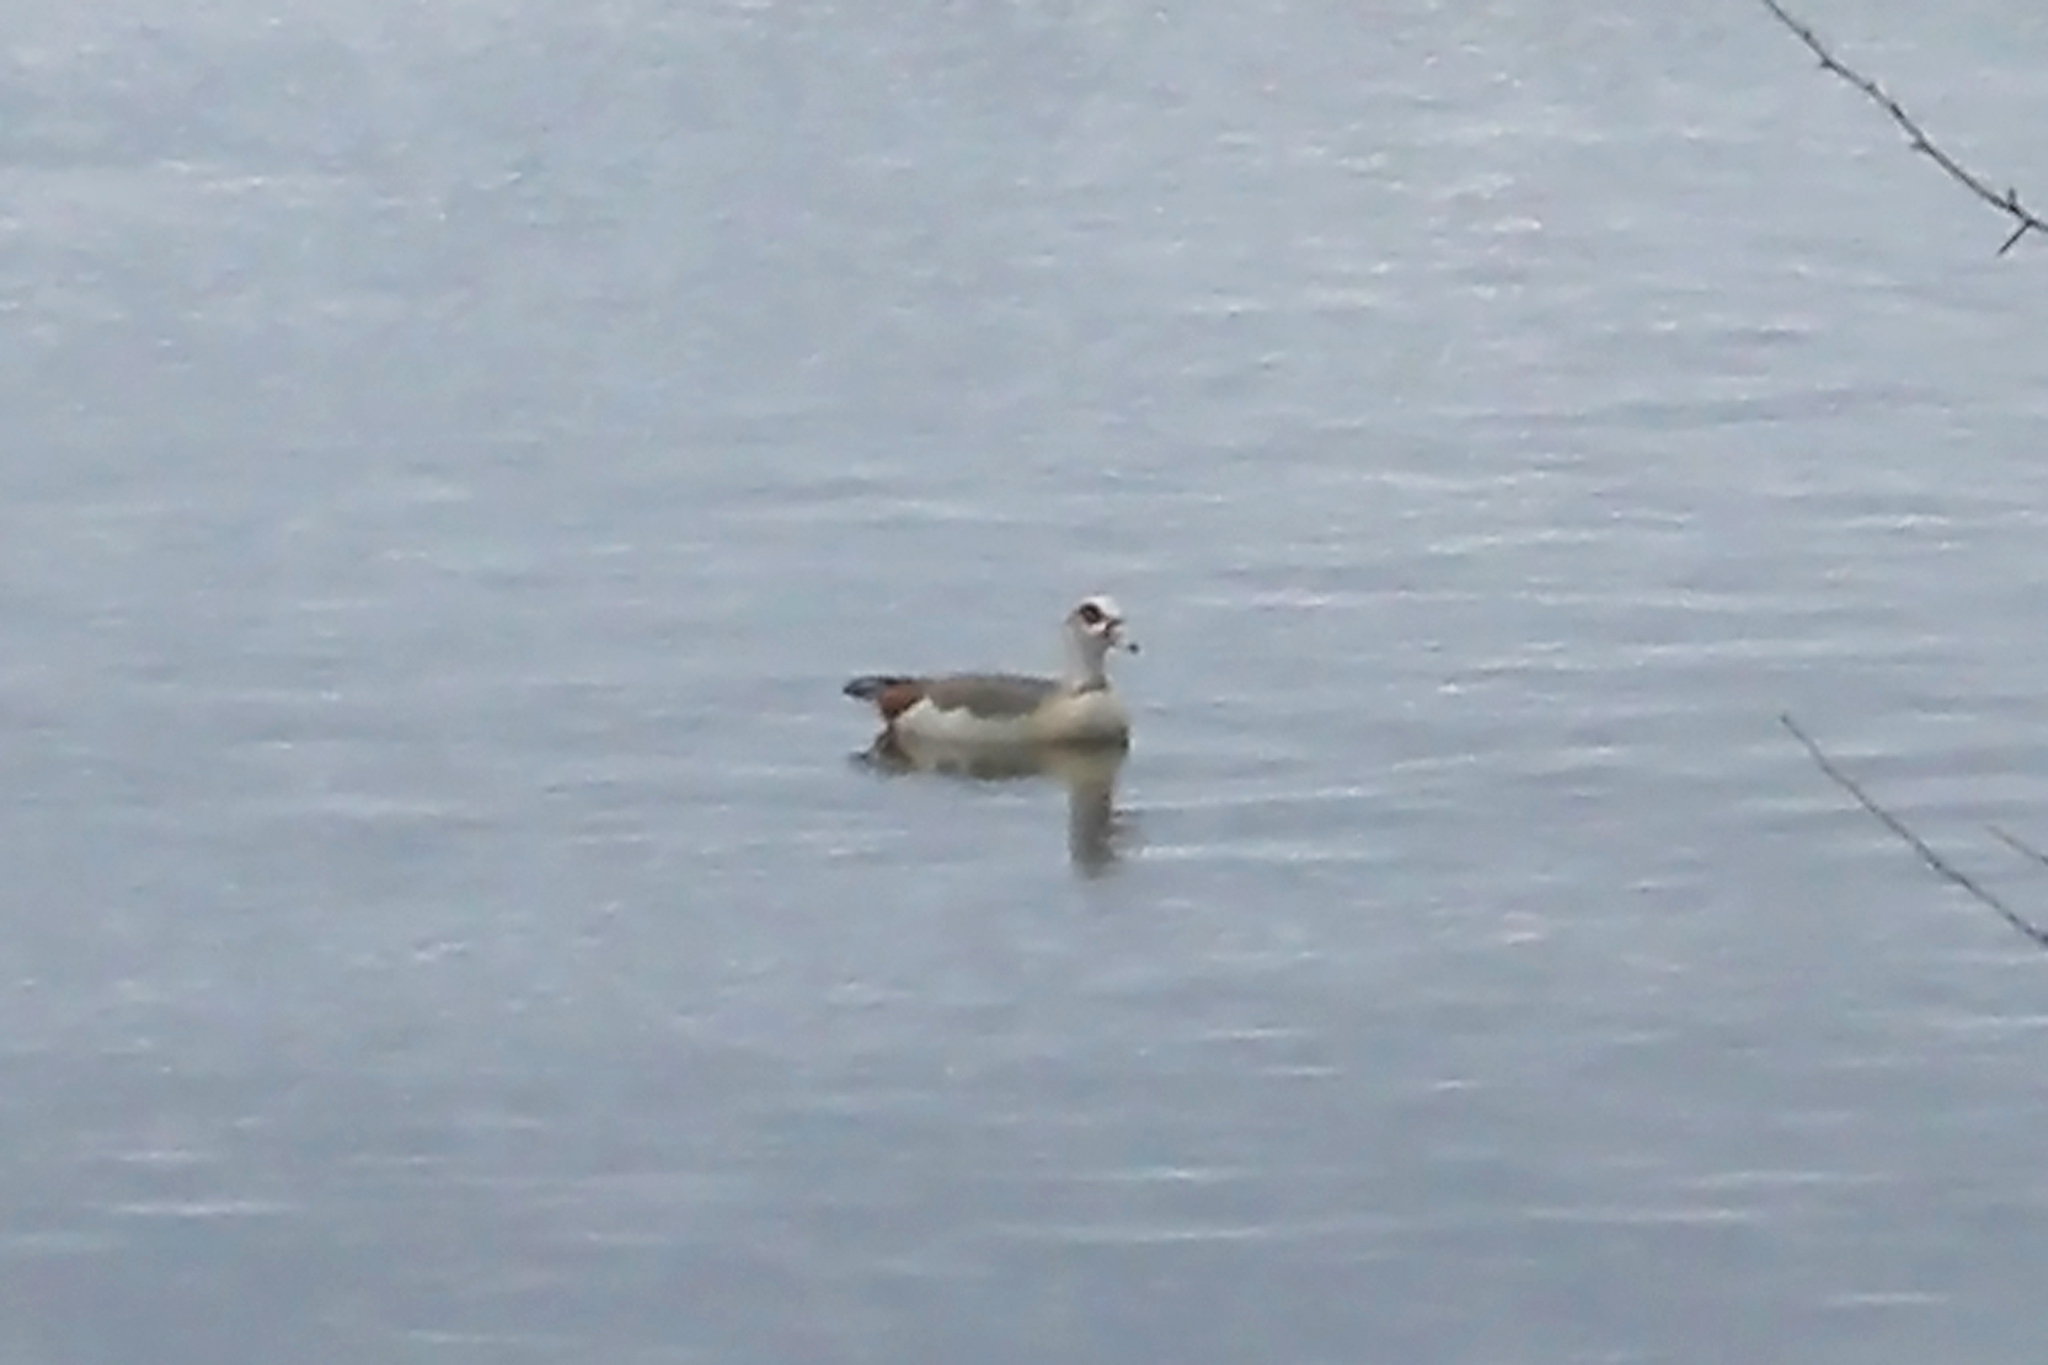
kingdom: Animalia
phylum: Chordata
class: Aves
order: Anseriformes
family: Anatidae
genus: Alopochen
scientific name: Alopochen aegyptiaca
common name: Egyptian goose
